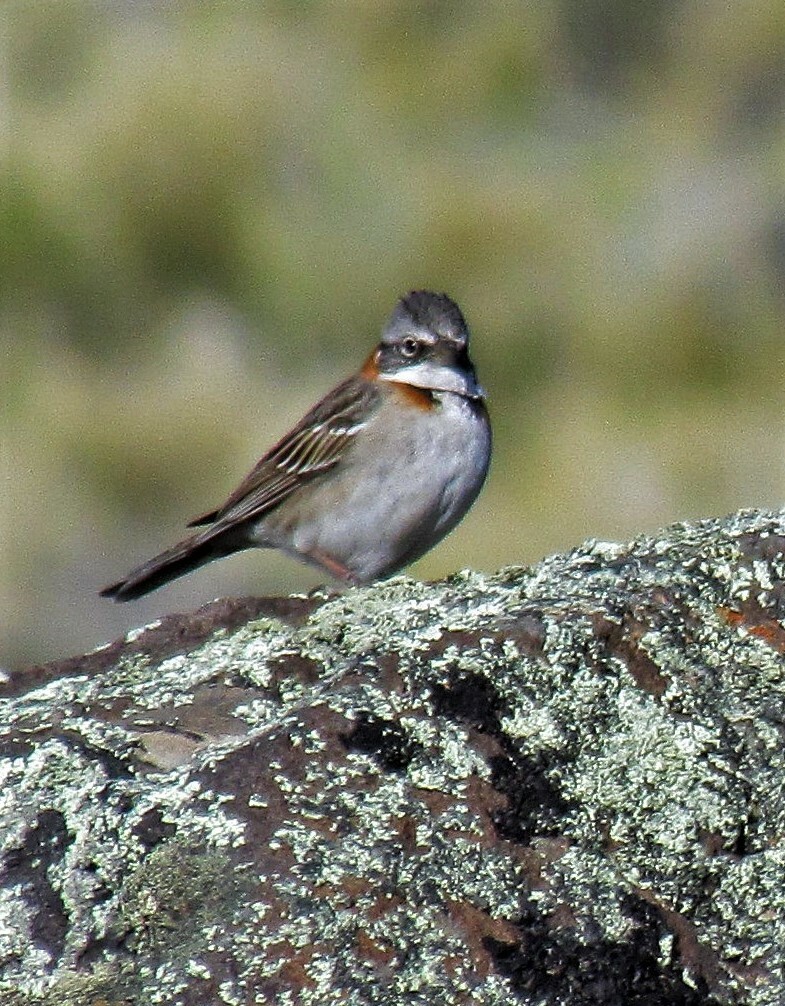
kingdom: Animalia
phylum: Chordata
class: Aves
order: Passeriformes
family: Passerellidae
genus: Zonotrichia
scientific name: Zonotrichia capensis
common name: Rufous-collared sparrow
